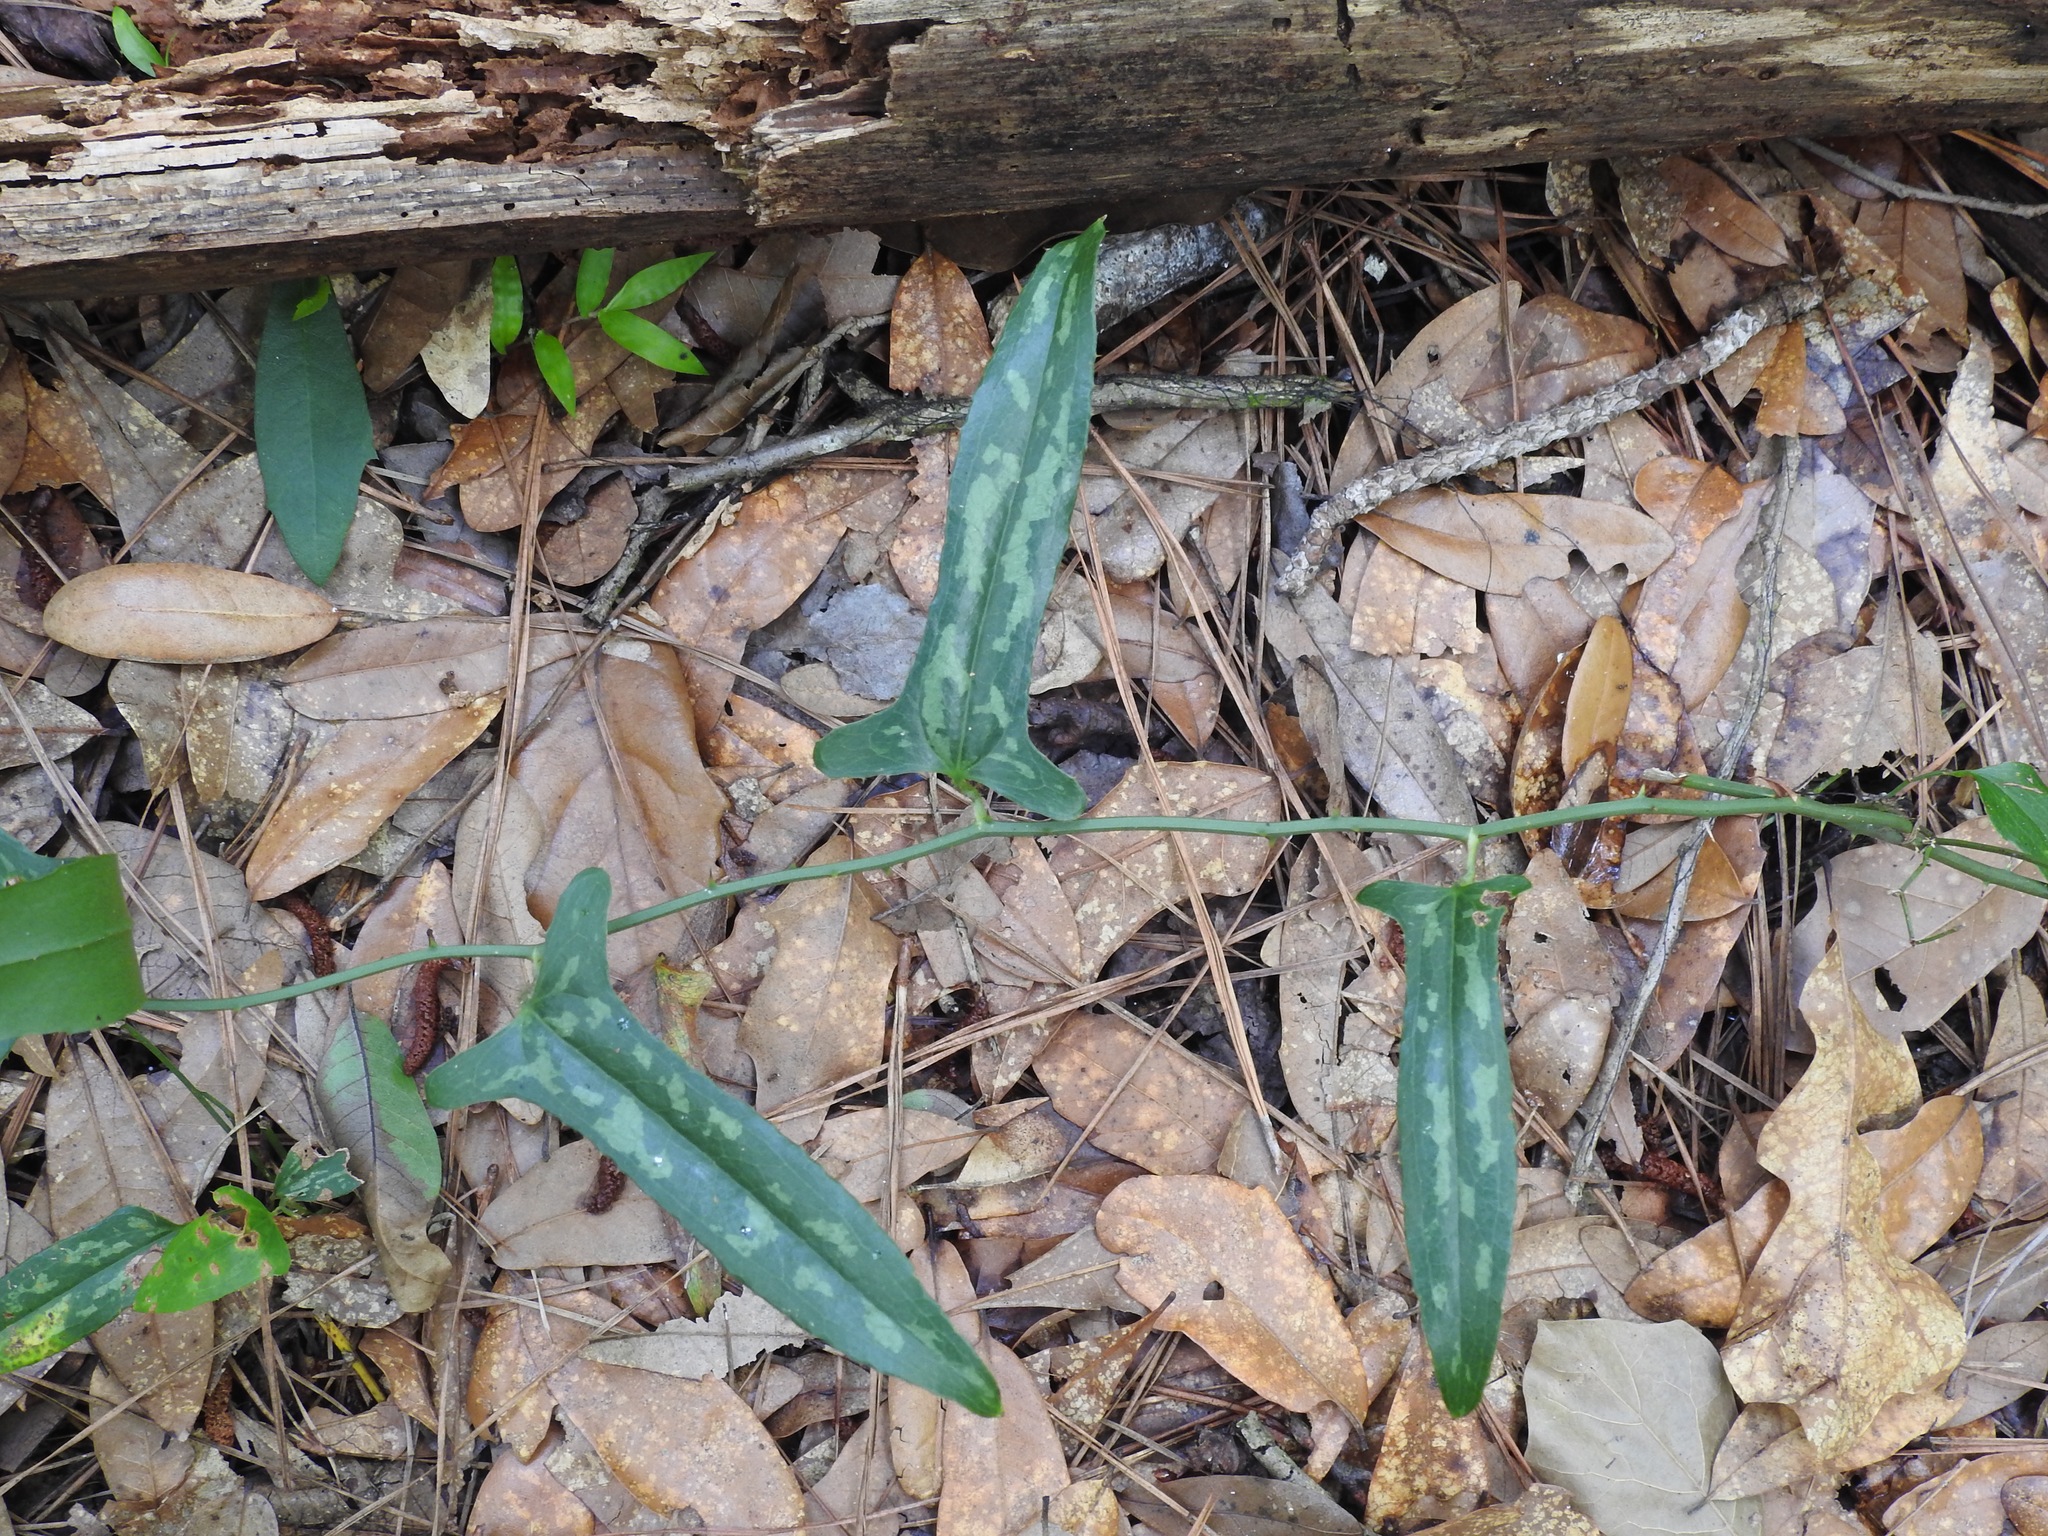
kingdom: Plantae
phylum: Tracheophyta
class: Liliopsida
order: Liliales
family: Smilacaceae
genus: Smilax
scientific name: Smilax bona-nox
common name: Catbrier
